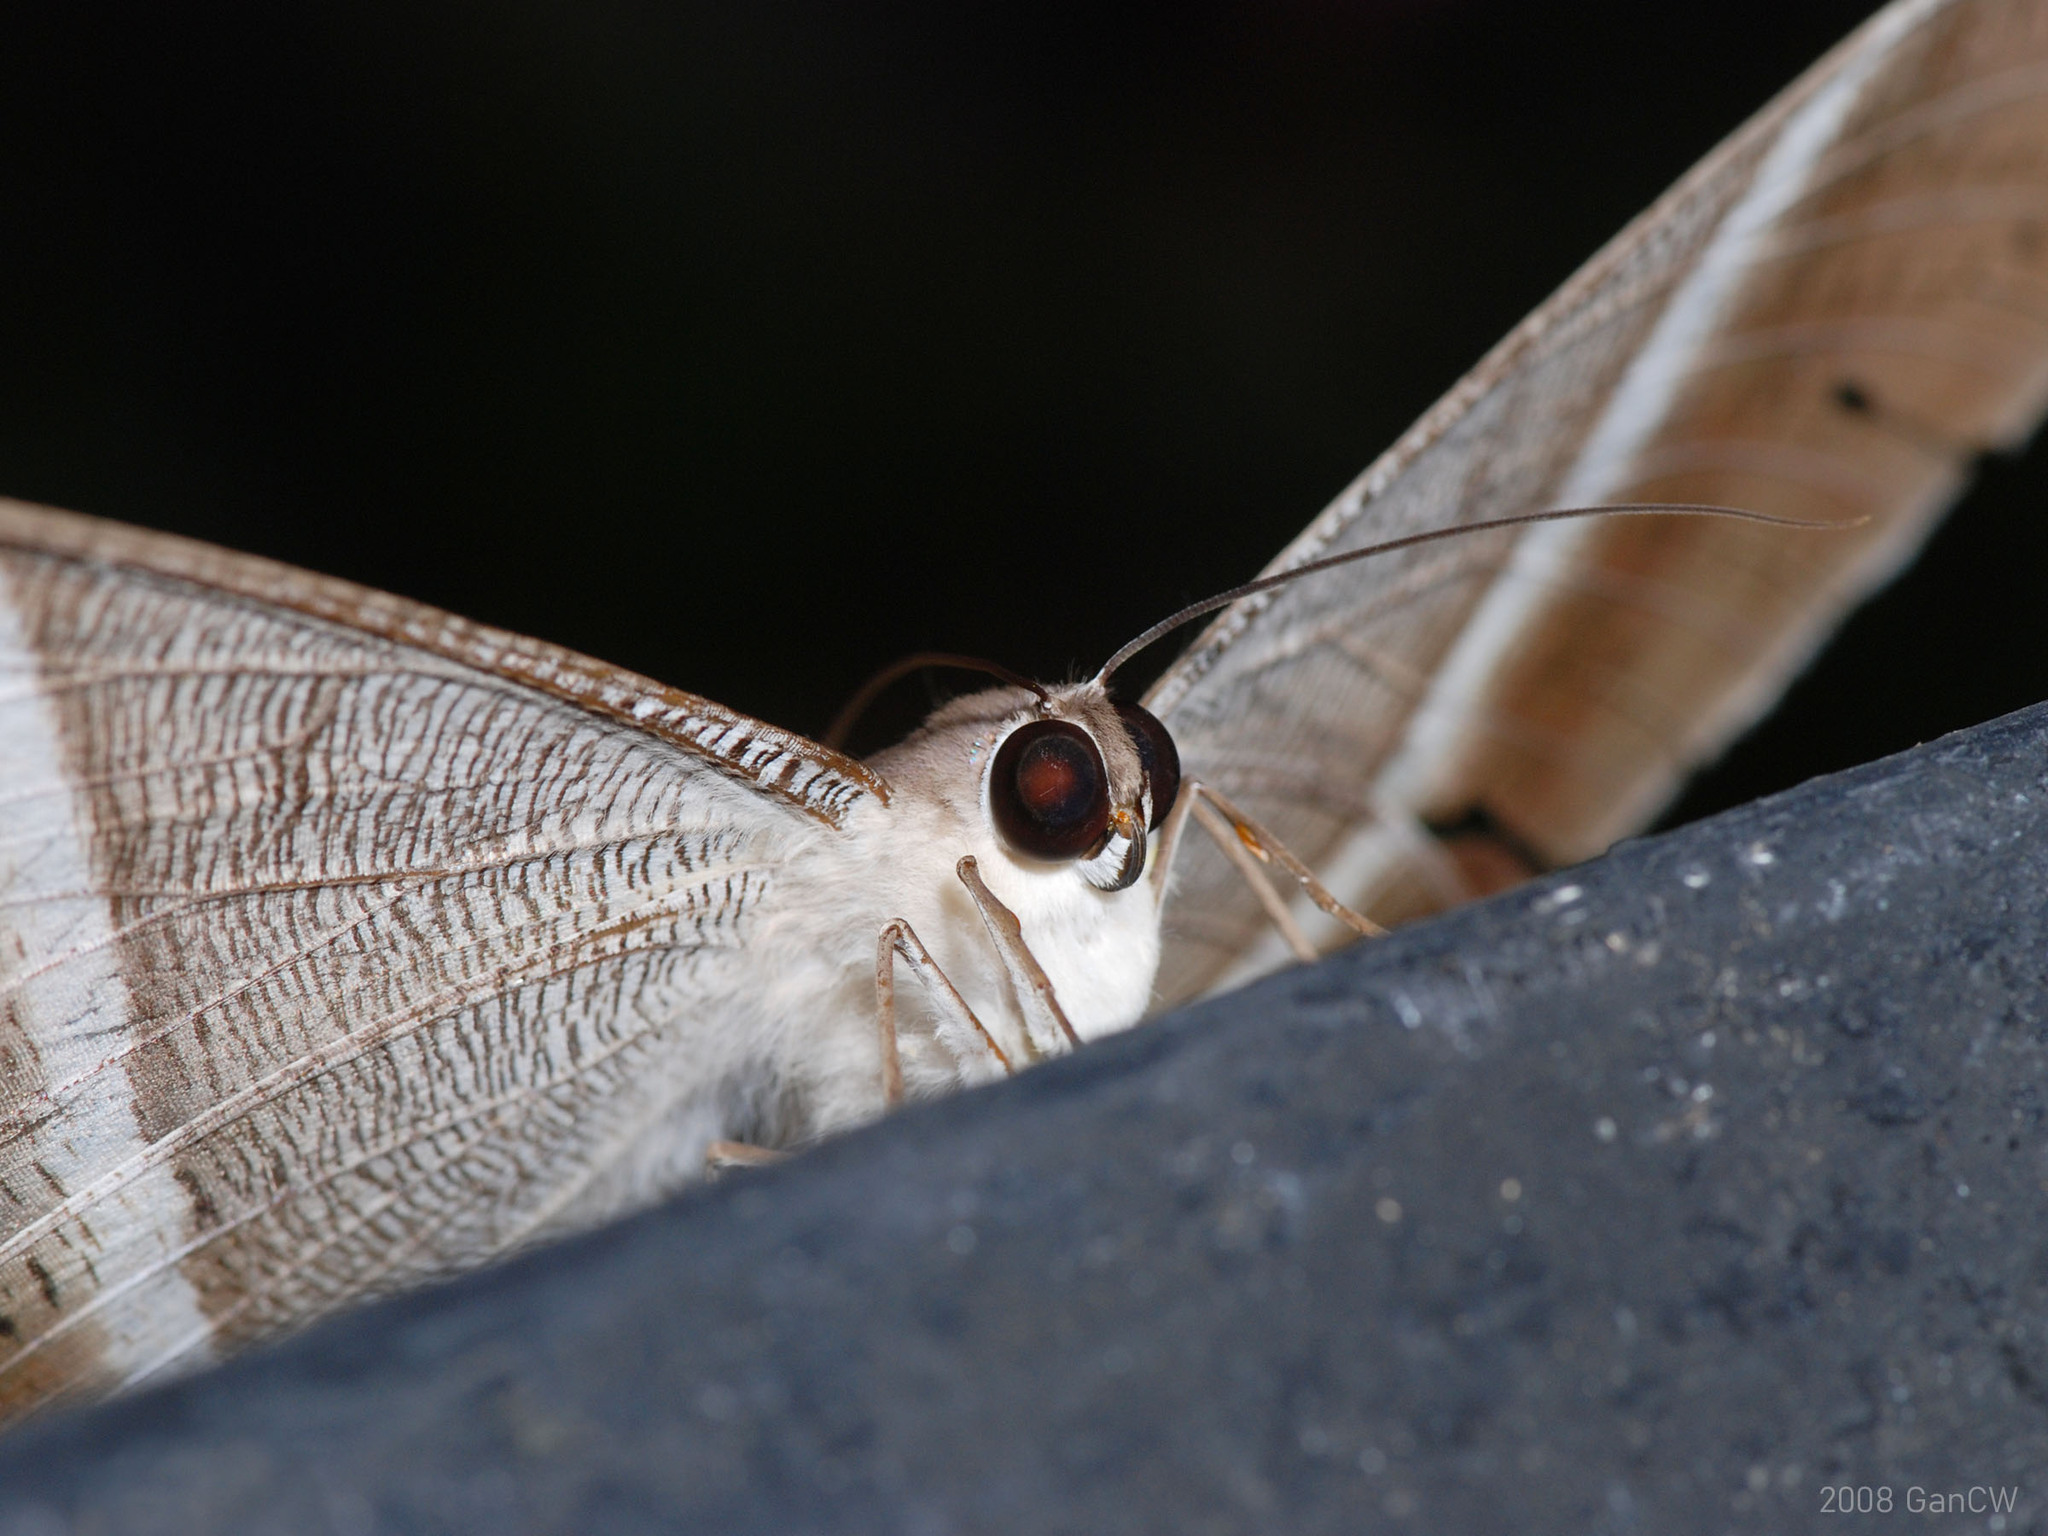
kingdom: Animalia
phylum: Arthropoda
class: Insecta
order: Lepidoptera
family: Uraniidae
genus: Lyssa
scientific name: Lyssa zampa
